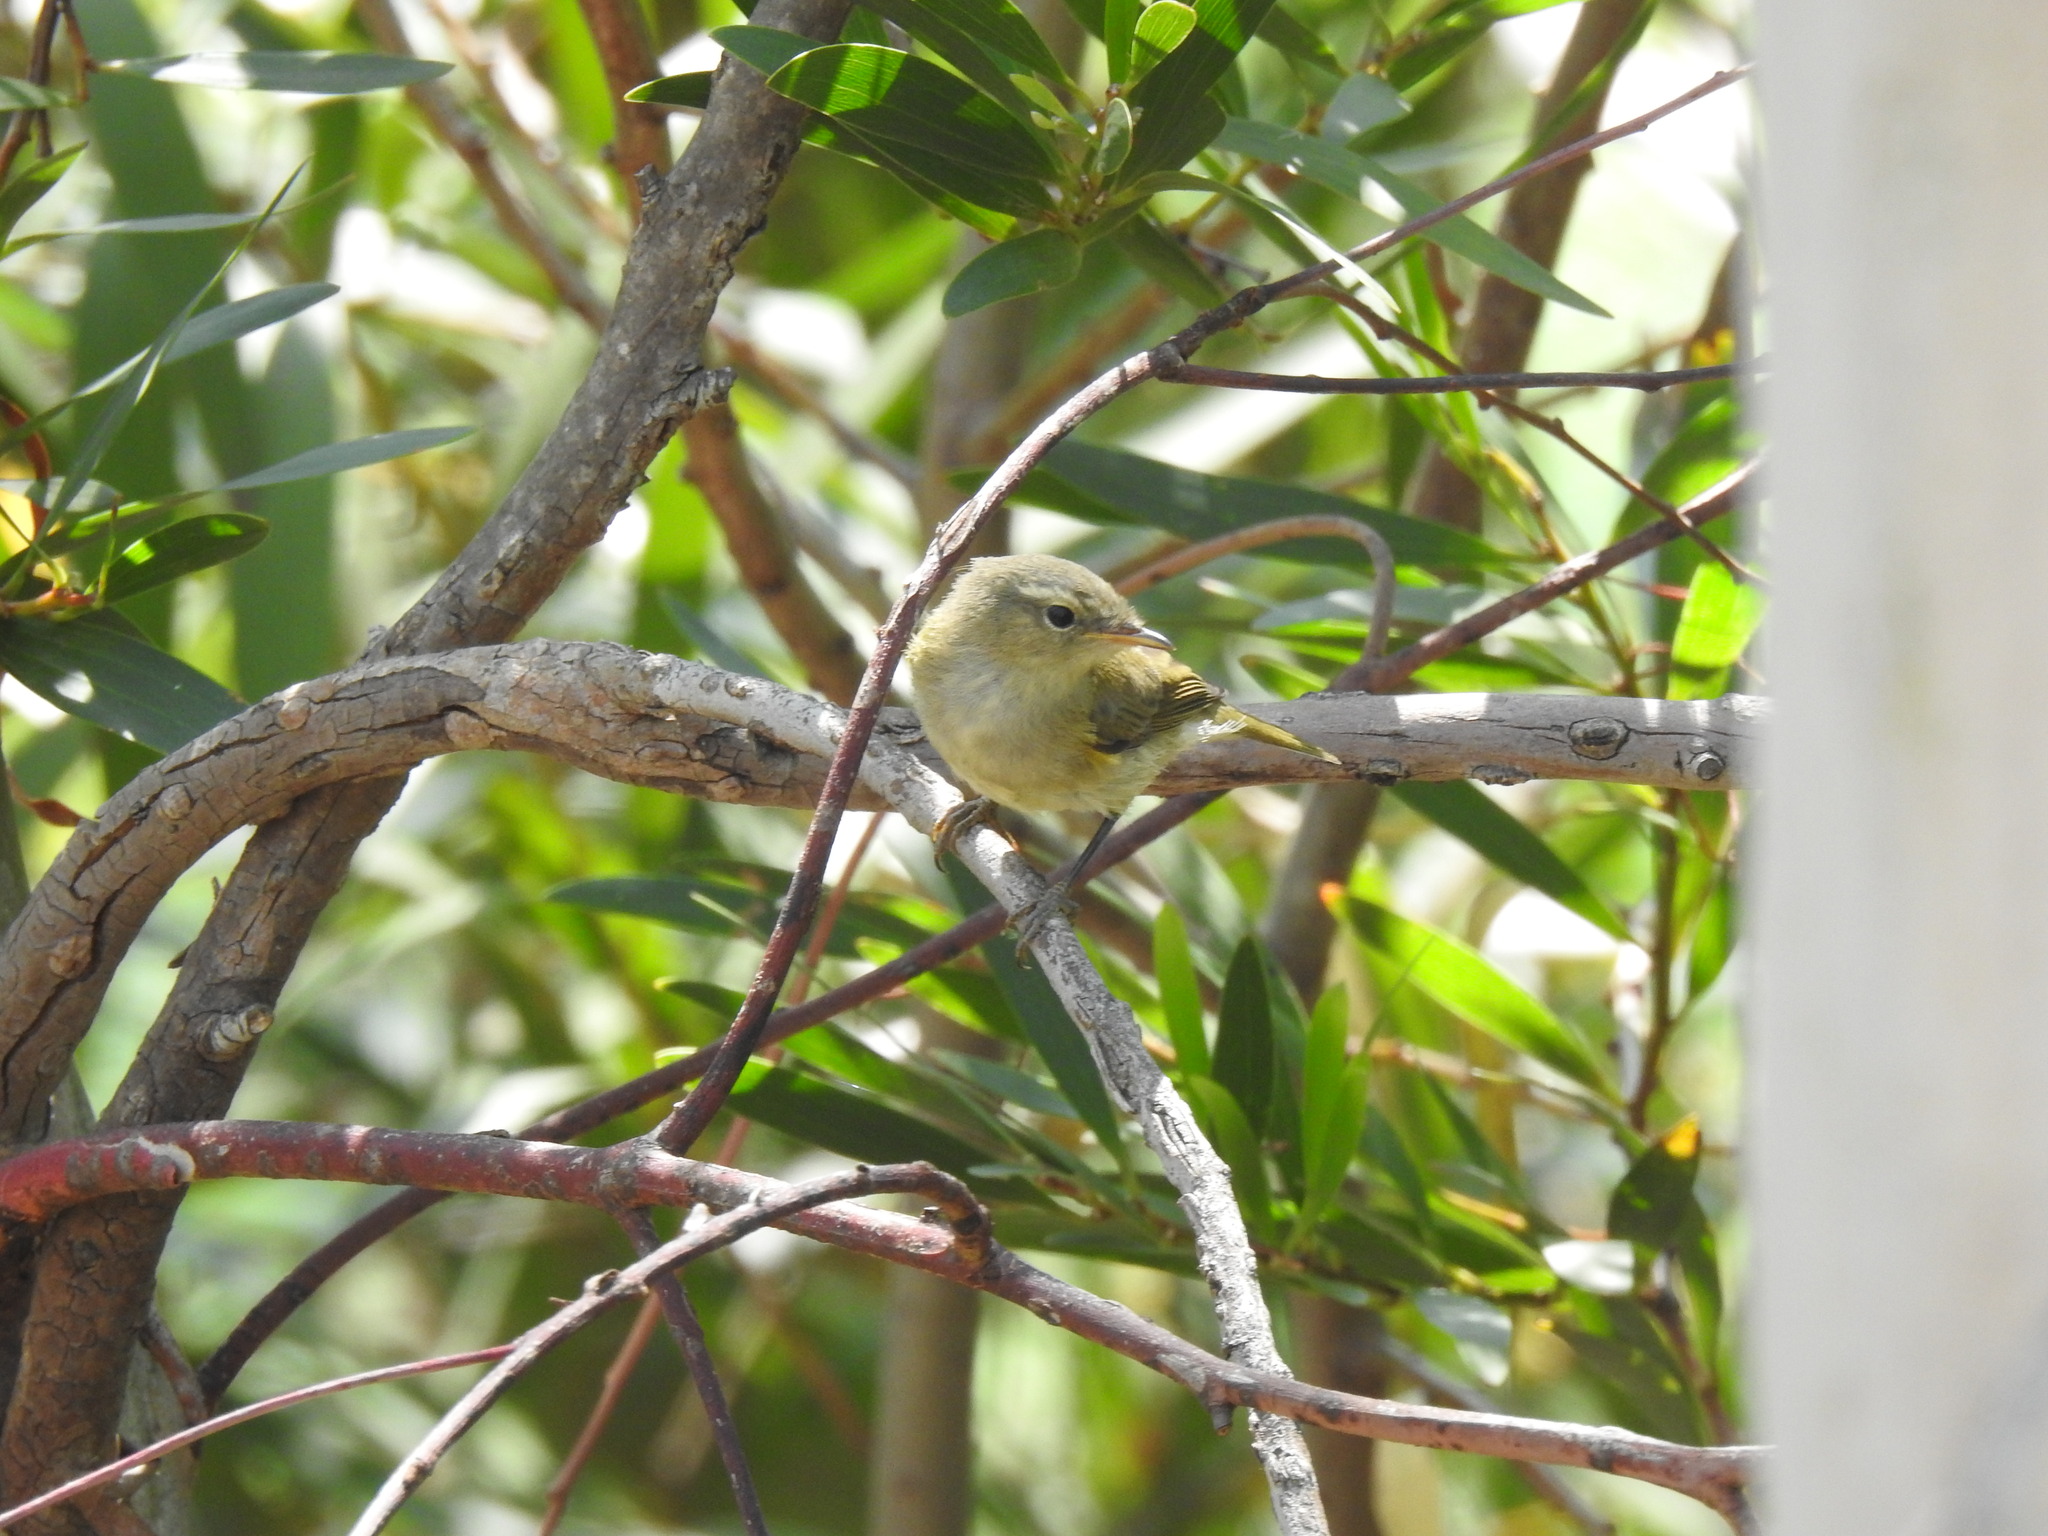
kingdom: Animalia
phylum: Chordata
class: Aves
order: Passeriformes
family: Phylloscopidae
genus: Phylloscopus
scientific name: Phylloscopus ibericus
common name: Iberian chiffchaff
